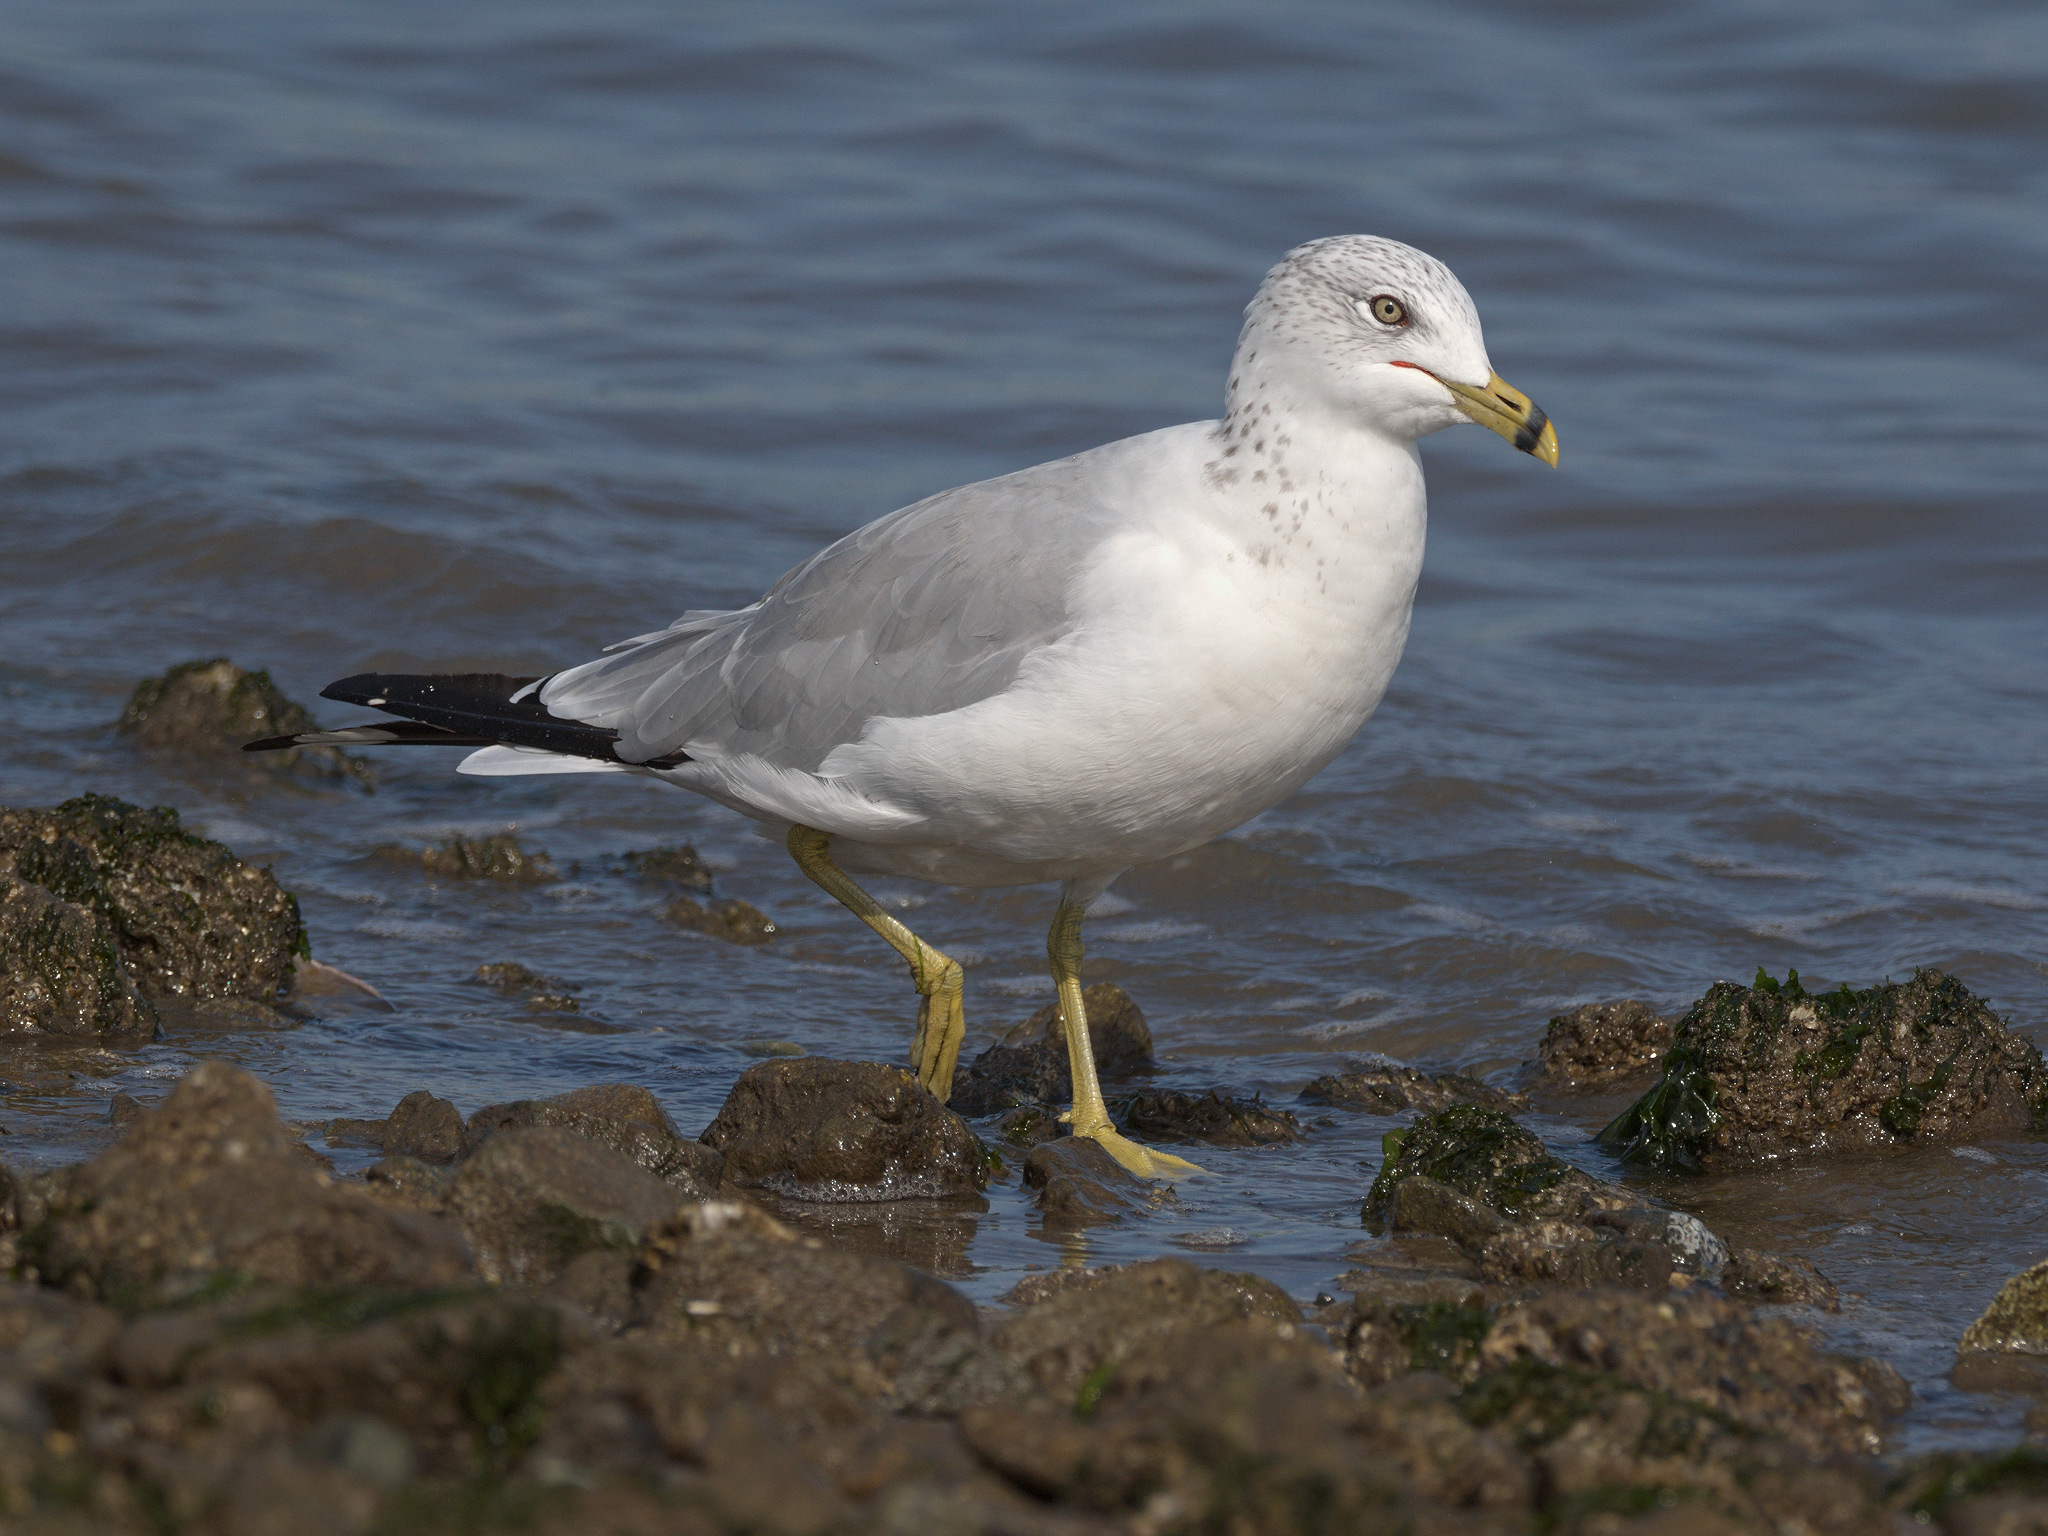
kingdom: Animalia
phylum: Chordata
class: Aves
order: Charadriiformes
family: Laridae
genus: Larus
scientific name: Larus delawarensis
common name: Ring-billed gull
